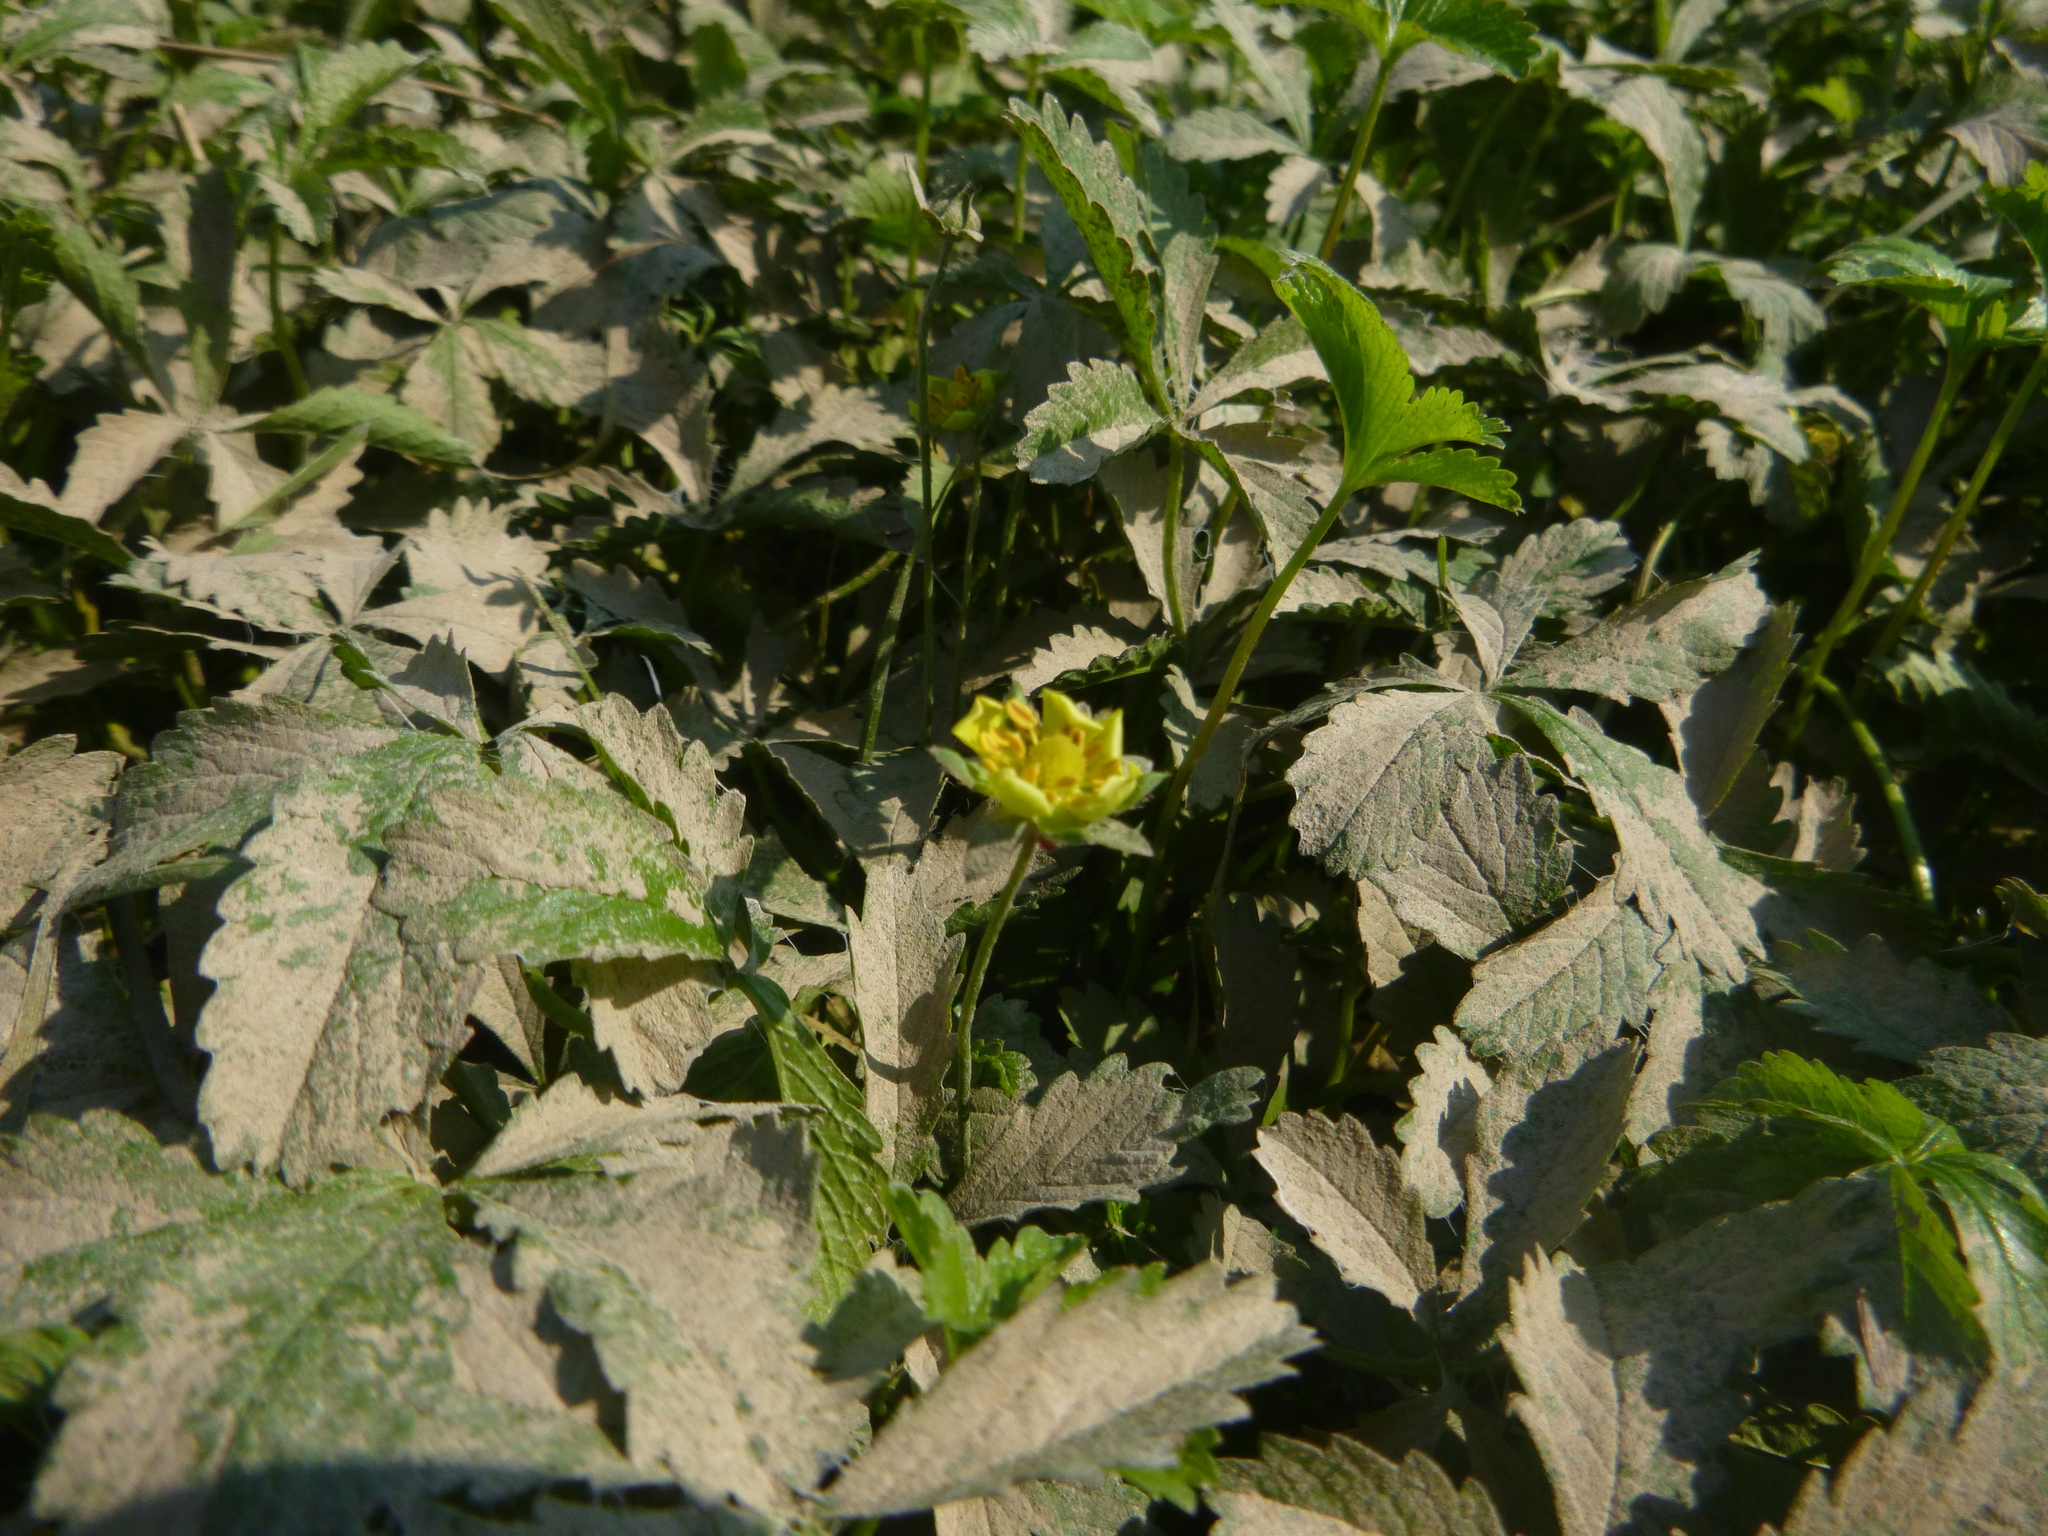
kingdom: Plantae
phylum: Tracheophyta
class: Magnoliopsida
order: Rosales
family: Rosaceae
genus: Potentilla
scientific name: Potentilla reptans
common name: Creeping cinquefoil
